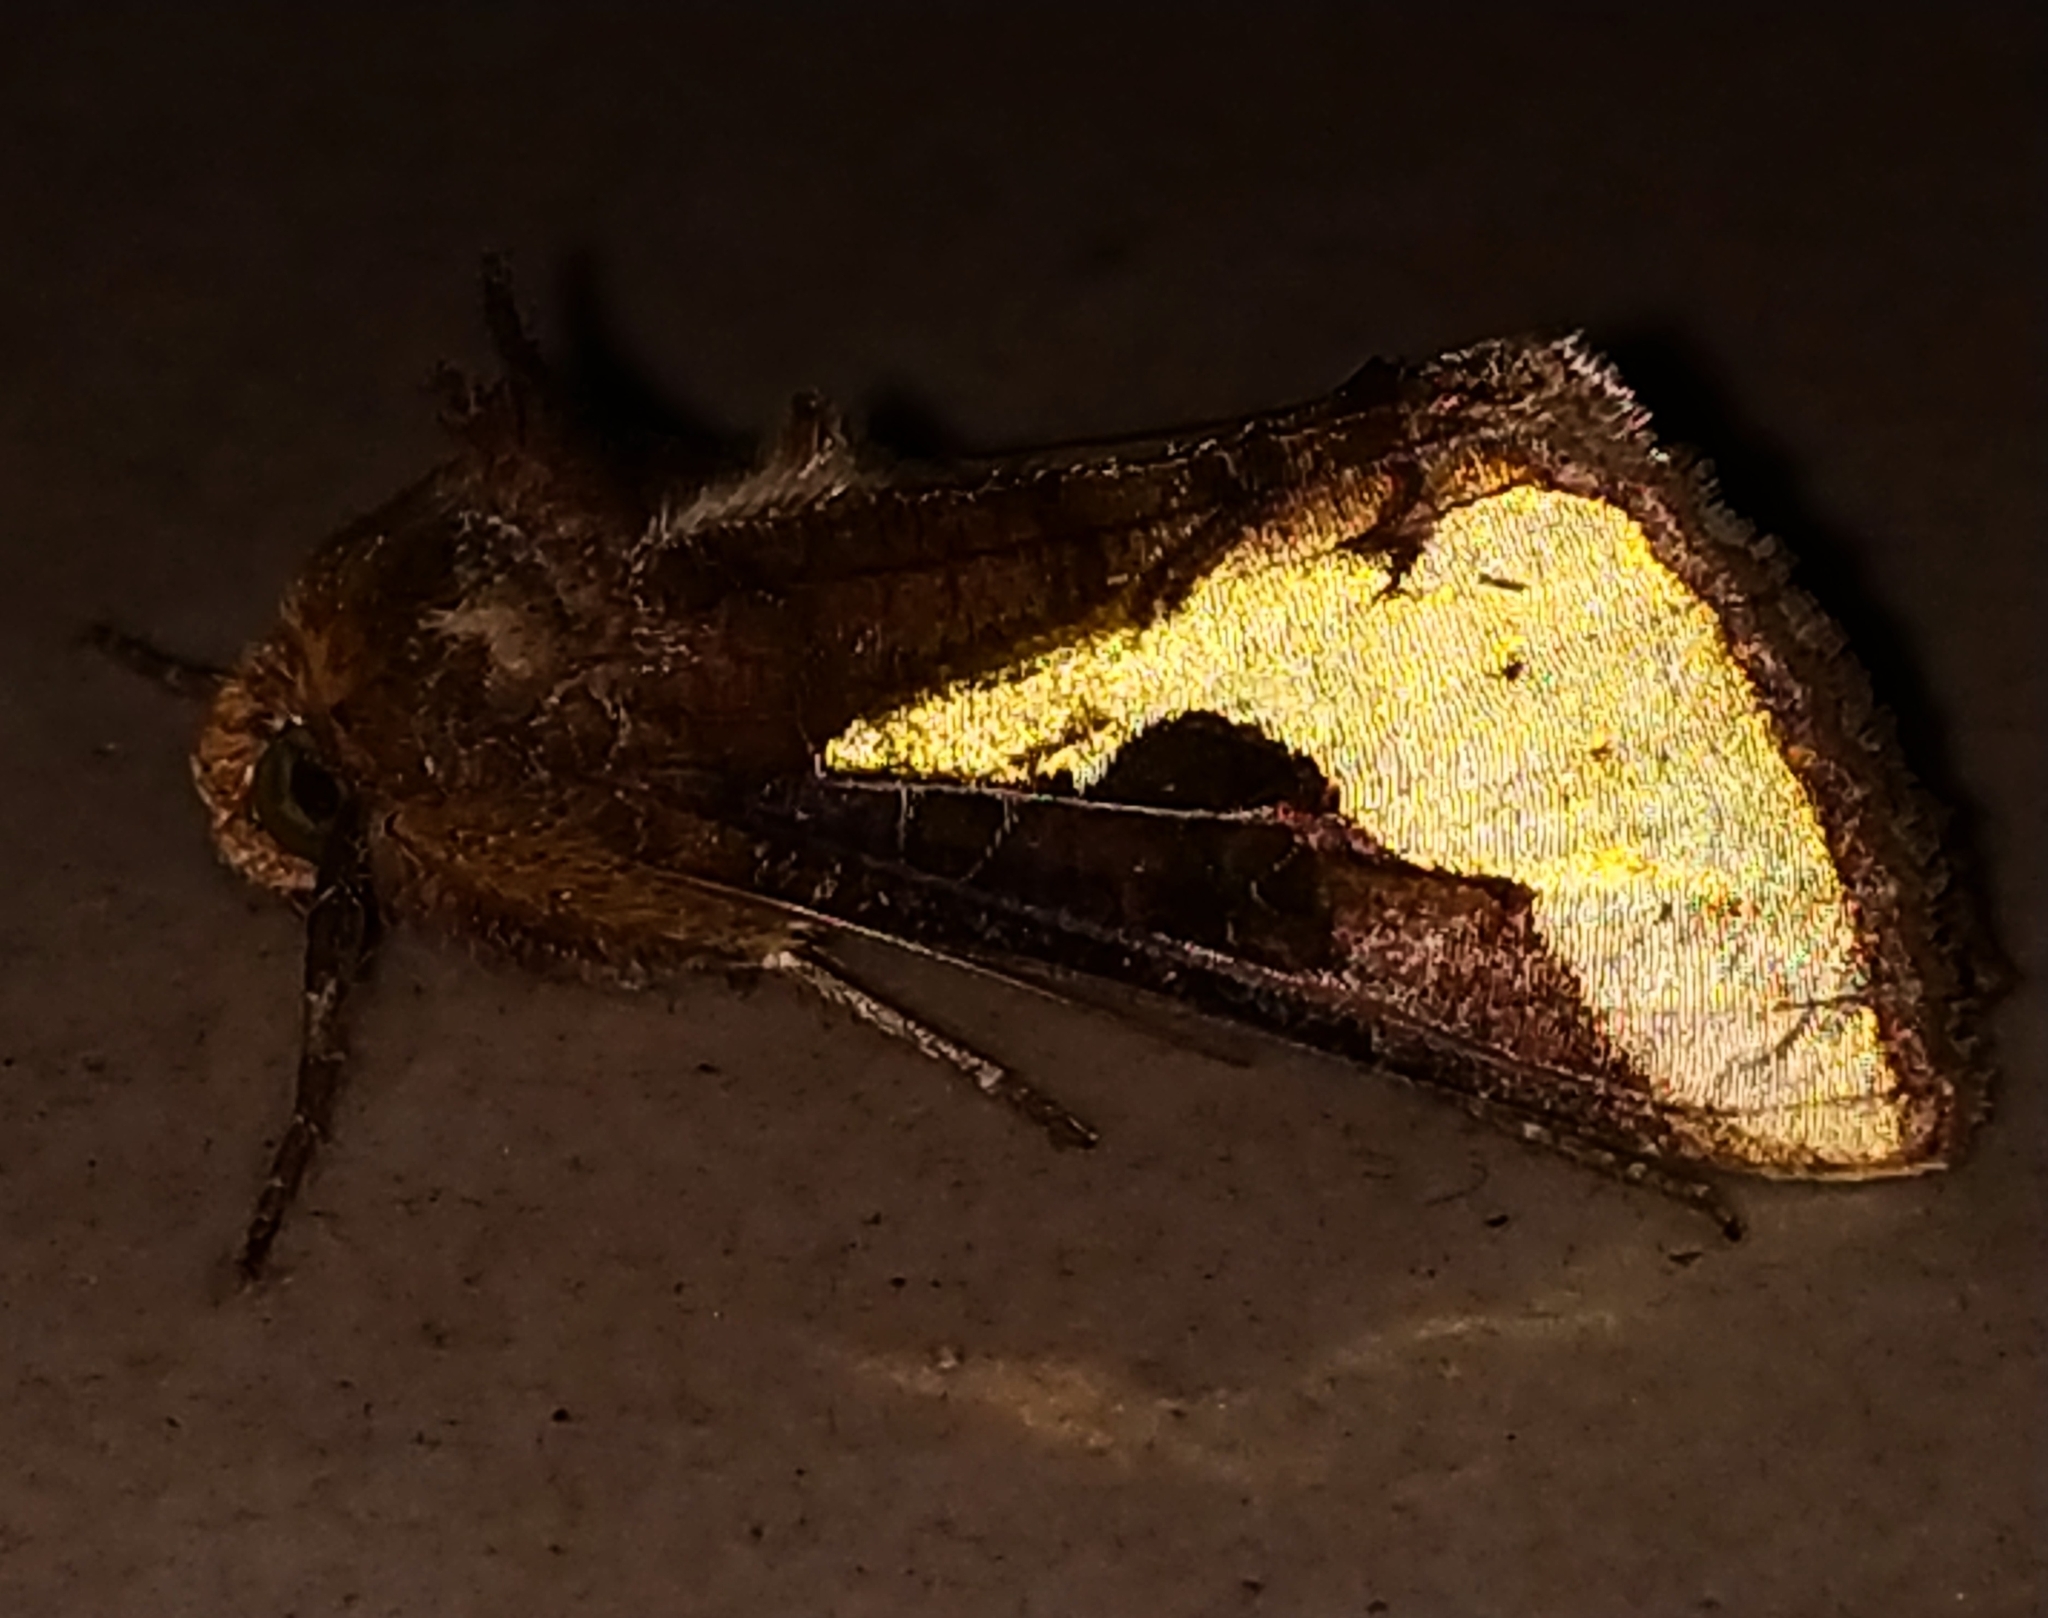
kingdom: Animalia
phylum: Arthropoda
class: Insecta
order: Lepidoptera
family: Noctuidae
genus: Thysanoplusia
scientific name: Thysanoplusia orichalcea
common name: Slender burnished brass, golden plusia
